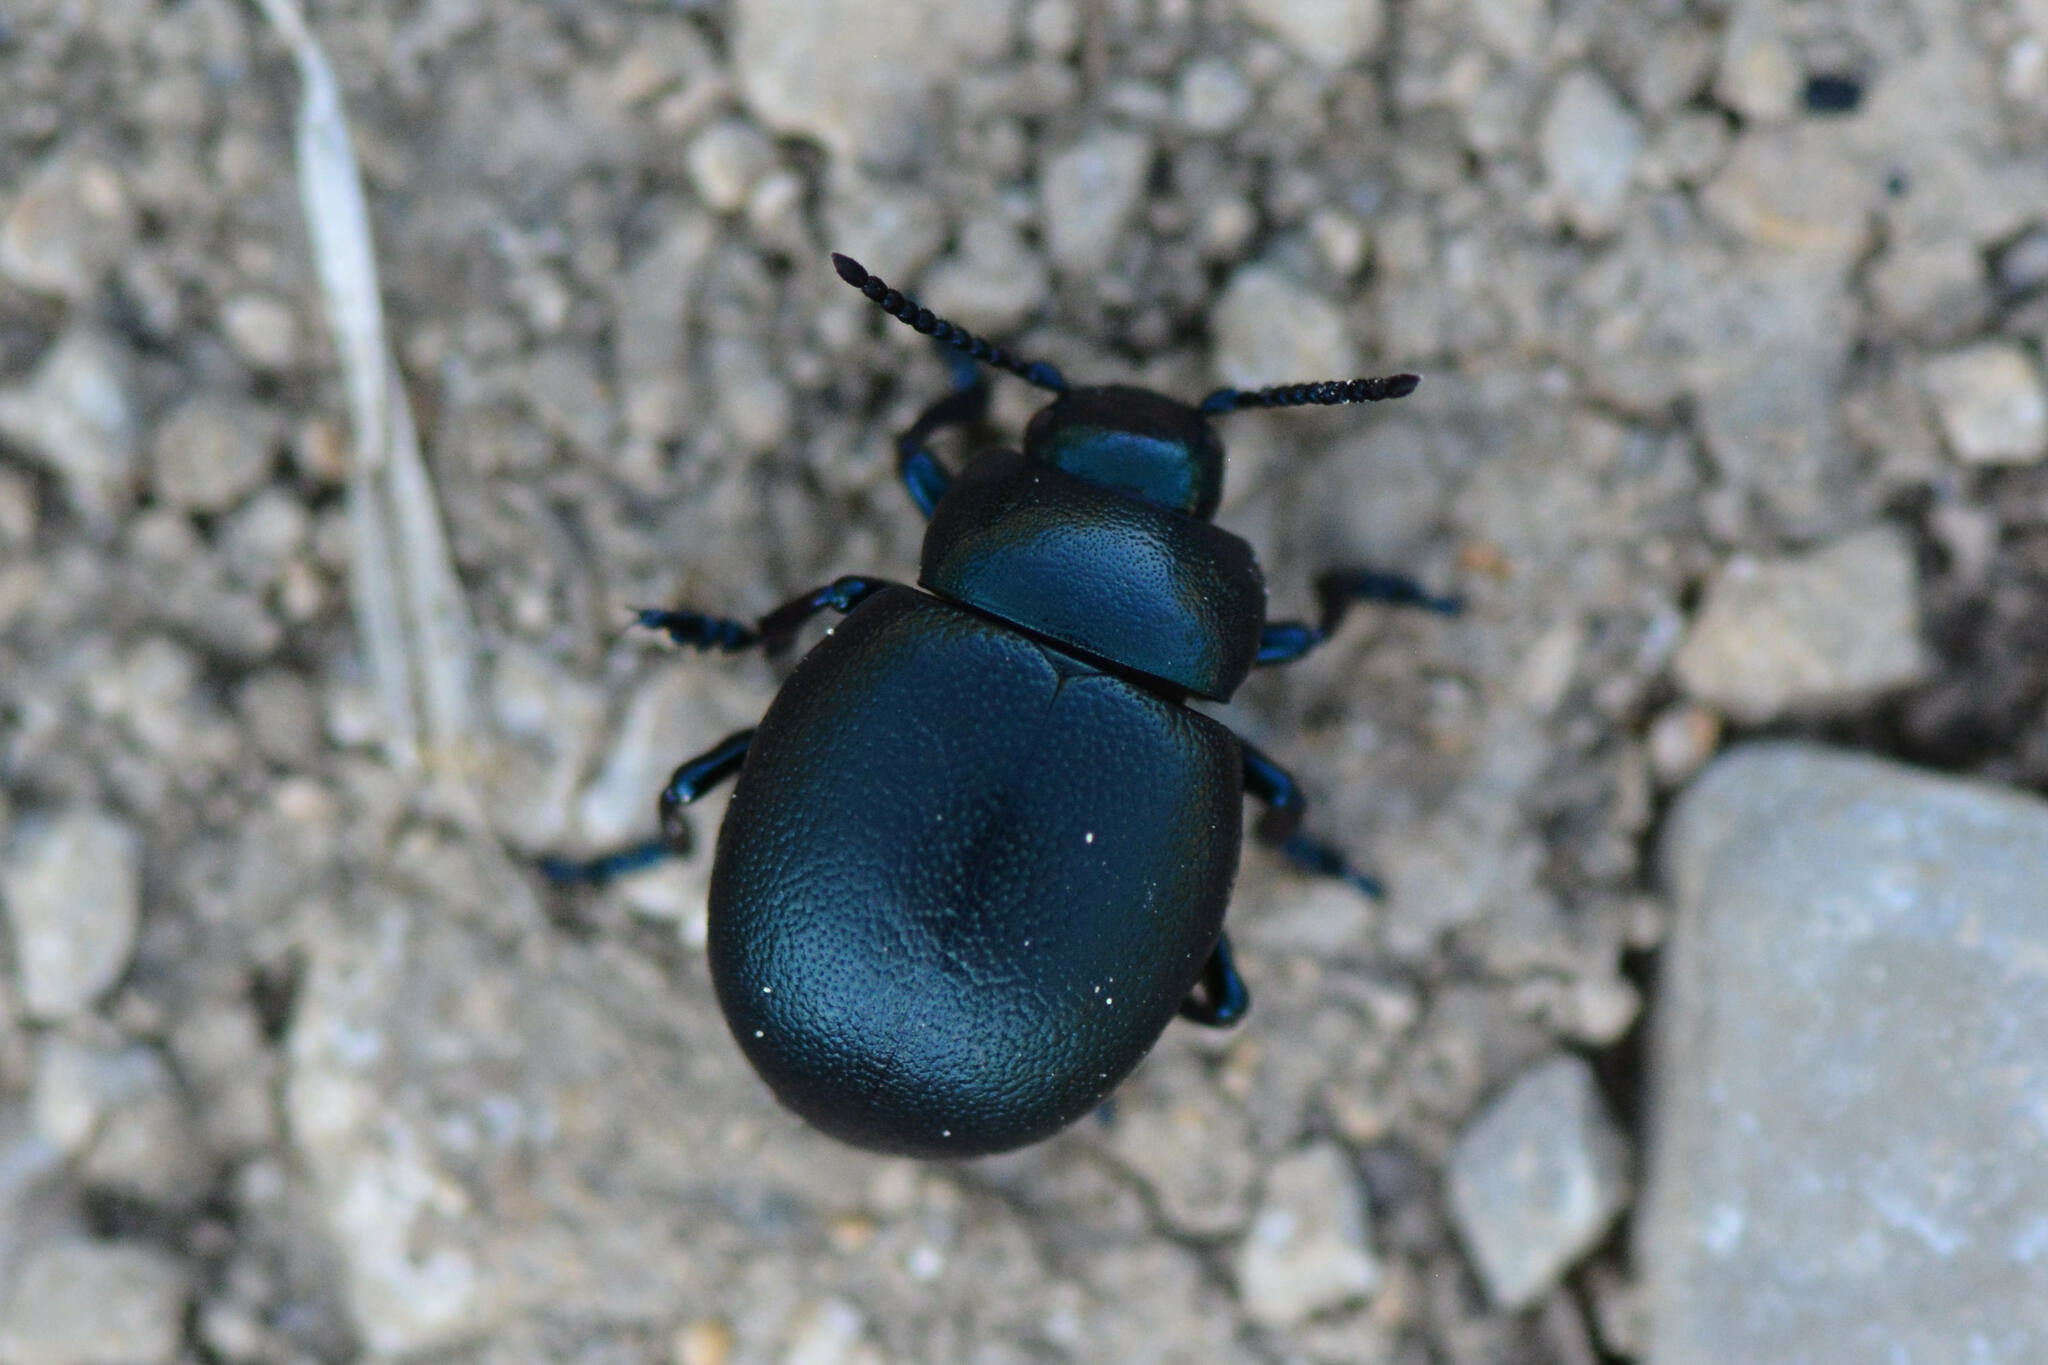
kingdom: Animalia
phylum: Arthropoda
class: Insecta
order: Coleoptera
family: Chrysomelidae
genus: Timarcha
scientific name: Timarcha goettingensis
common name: Small bloody-nosed beetle
